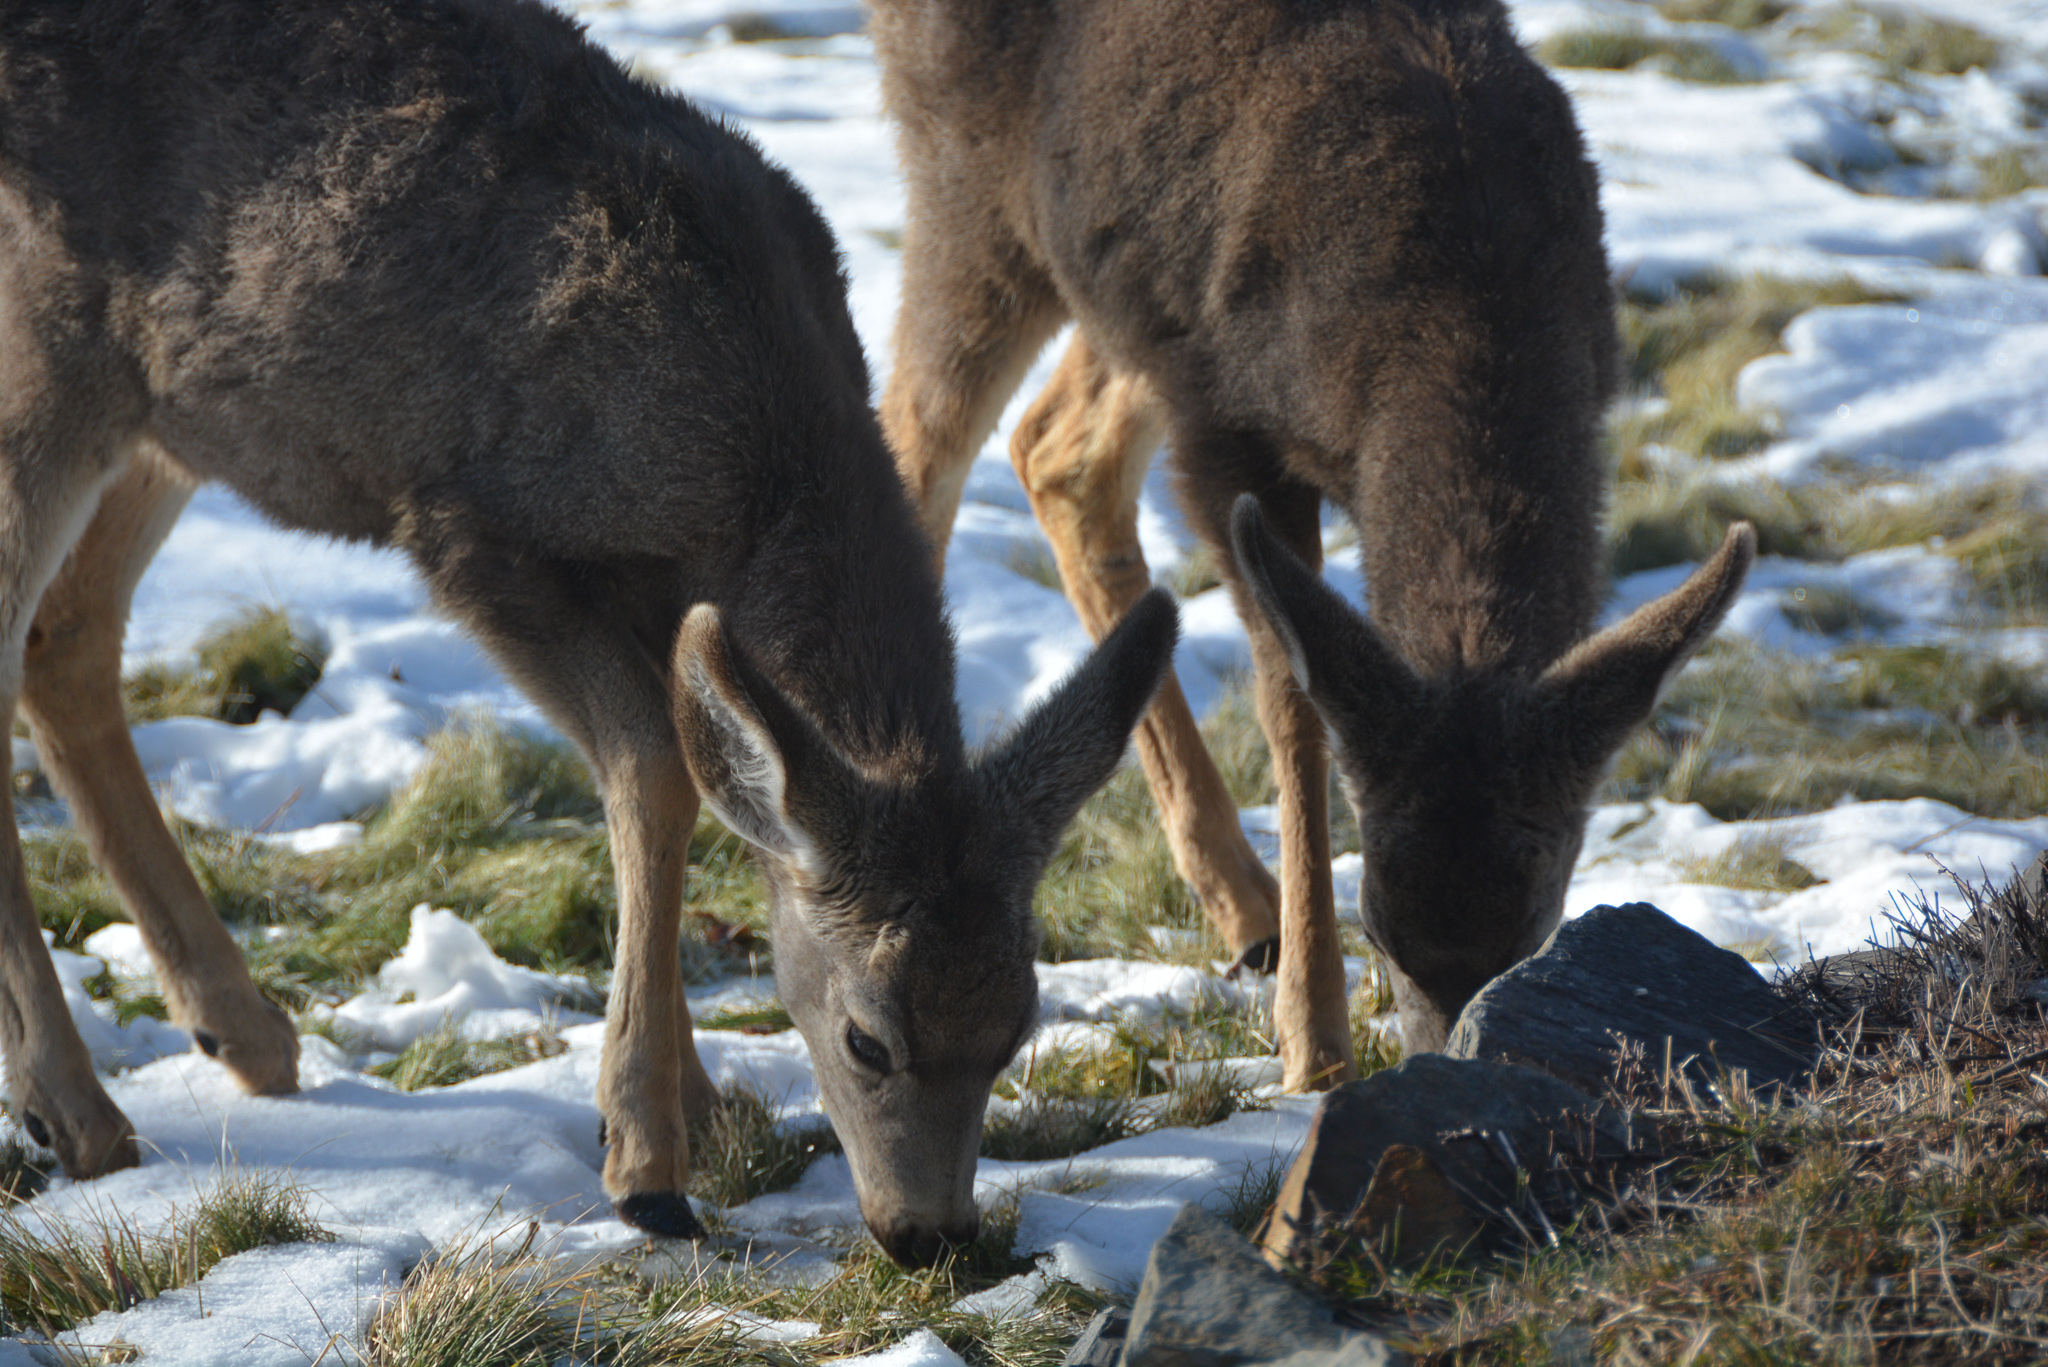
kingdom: Animalia
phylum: Chordata
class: Mammalia
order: Artiodactyla
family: Cervidae
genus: Odocoileus
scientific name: Odocoileus hemionus
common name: Mule deer
